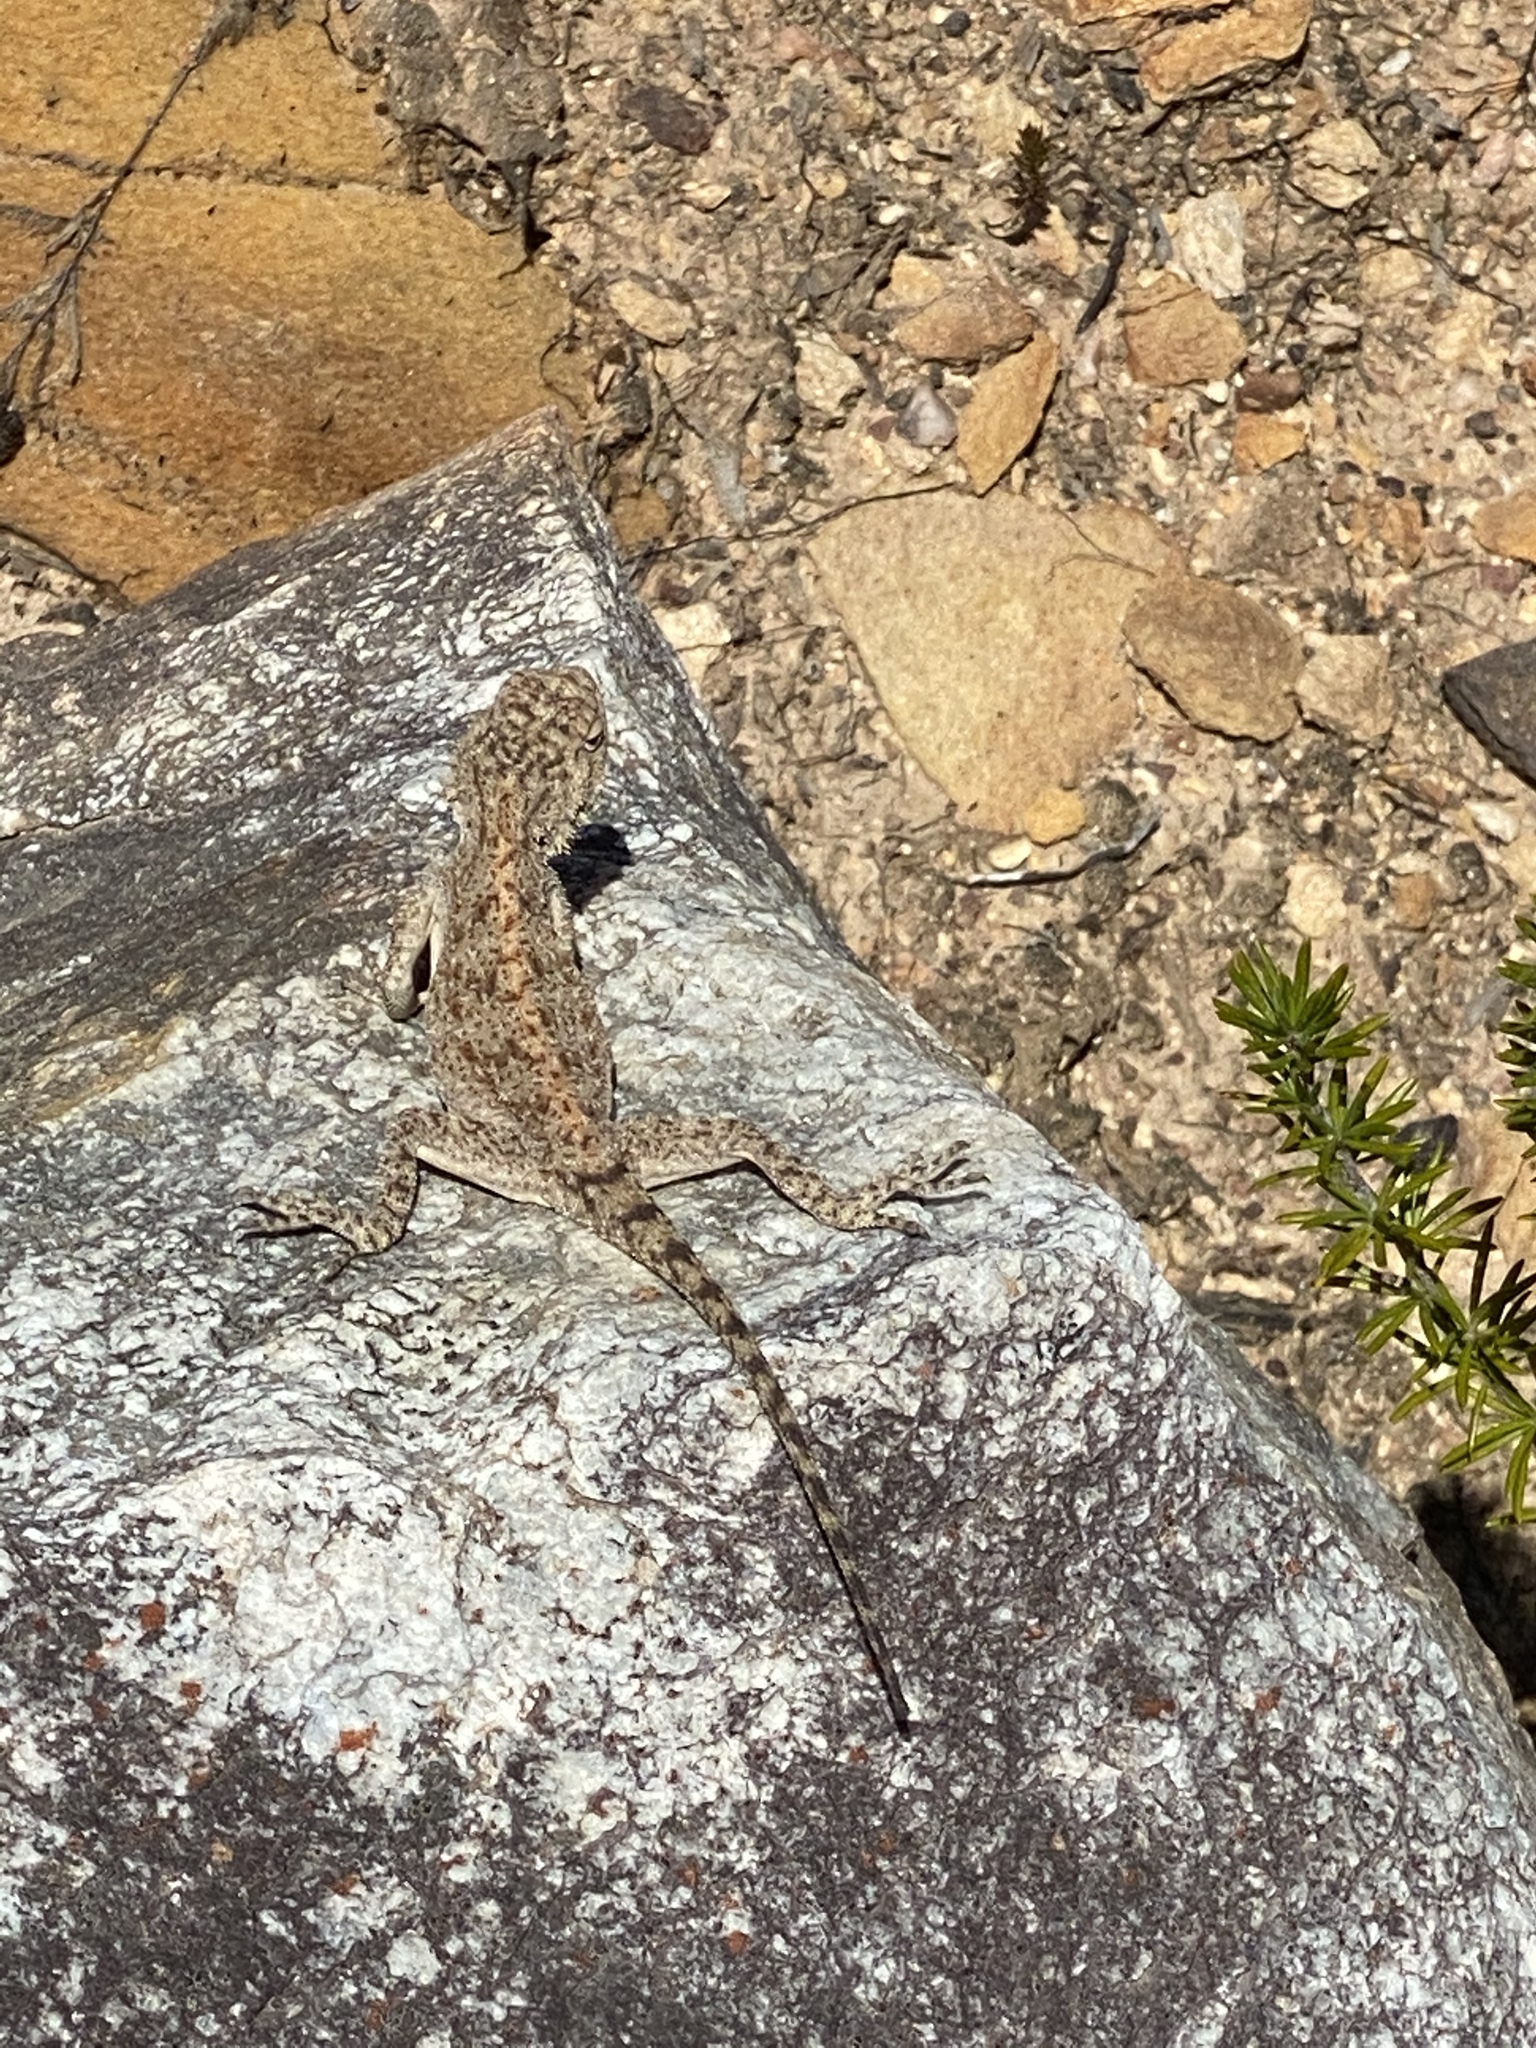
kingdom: Animalia
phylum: Chordata
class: Squamata
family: Agamidae
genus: Agama
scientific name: Agama atra
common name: Southern african rock agama
